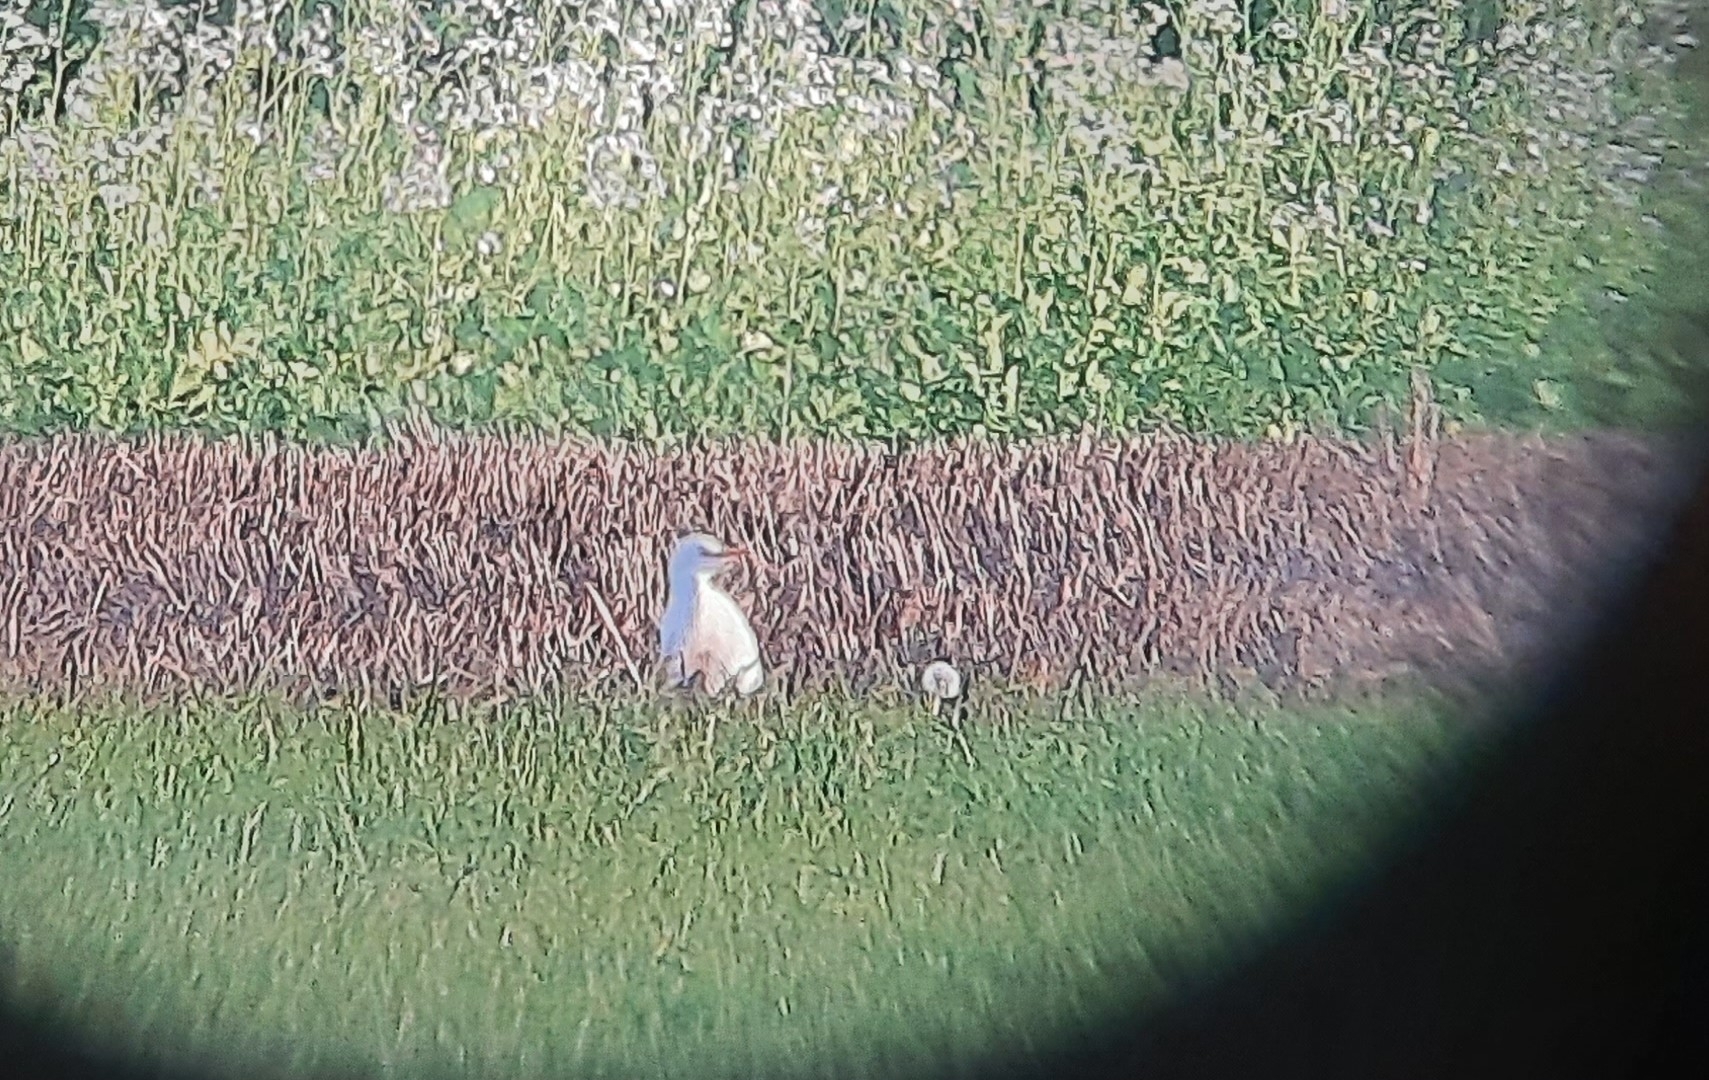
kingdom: Animalia
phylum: Chordata
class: Aves
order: Pelecaniformes
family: Ardeidae
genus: Bubulcus
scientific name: Bubulcus ibis
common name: Cattle egret
